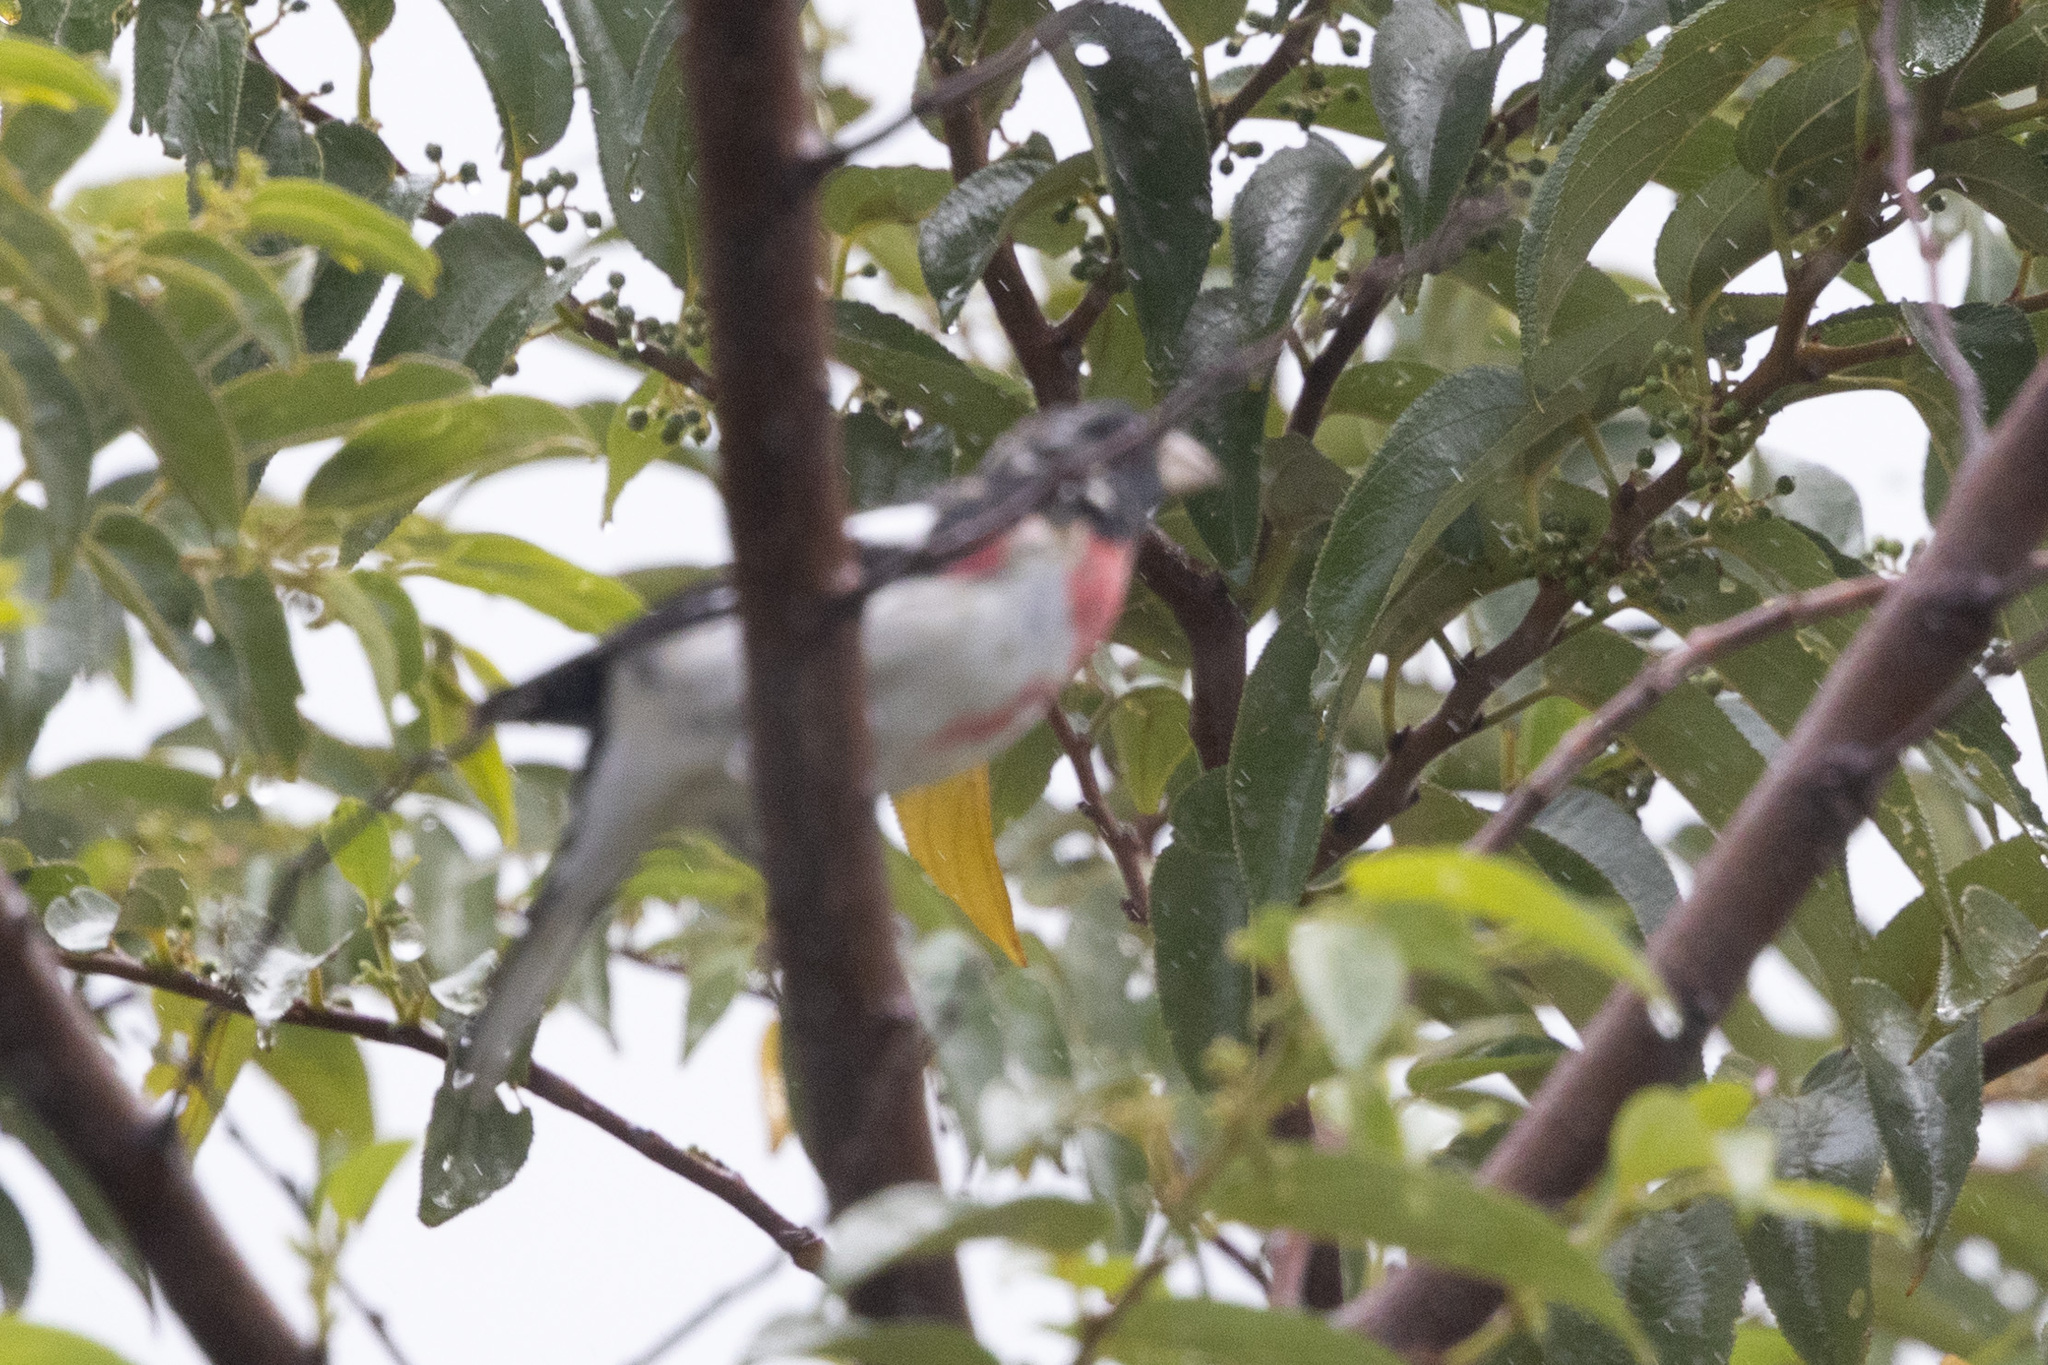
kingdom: Animalia
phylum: Chordata
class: Aves
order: Passeriformes
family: Cardinalidae
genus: Pheucticus
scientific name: Pheucticus ludovicianus
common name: Rose-breasted grosbeak
